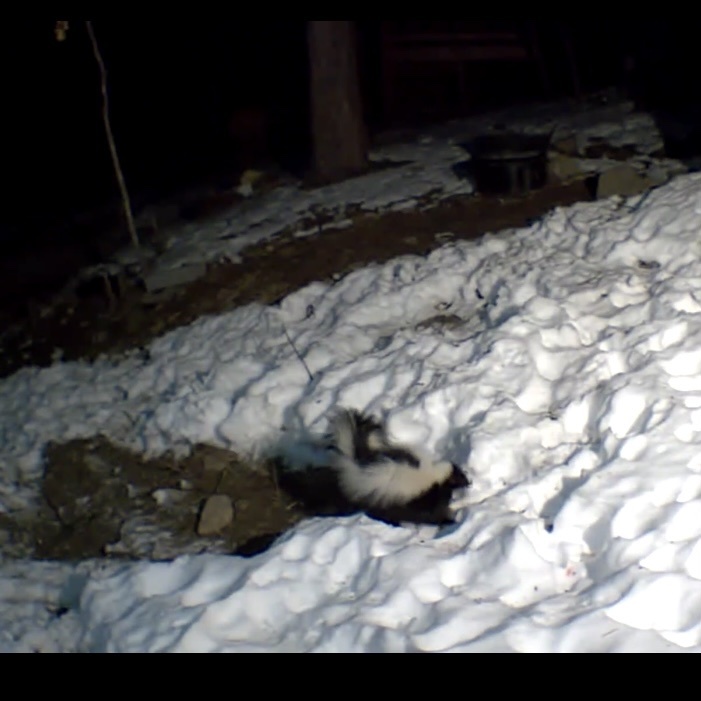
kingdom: Animalia
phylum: Chordata
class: Mammalia
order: Carnivora
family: Mephitidae
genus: Mephitis
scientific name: Mephitis mephitis
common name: Striped skunk
